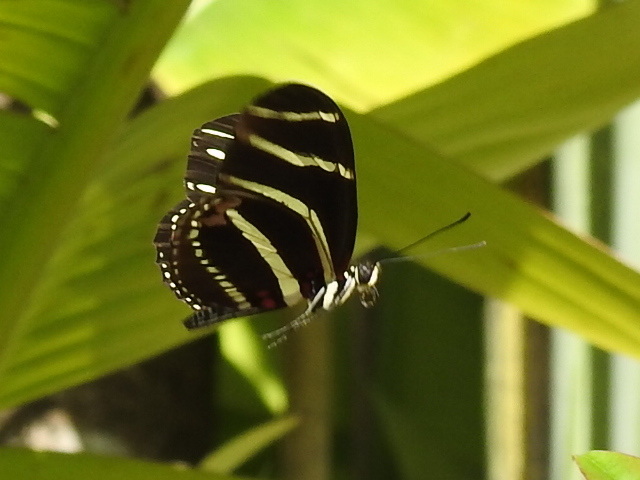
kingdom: Animalia
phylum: Arthropoda
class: Insecta
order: Lepidoptera
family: Nymphalidae
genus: Heliconius
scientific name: Heliconius charithonia
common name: Zebra long wing
